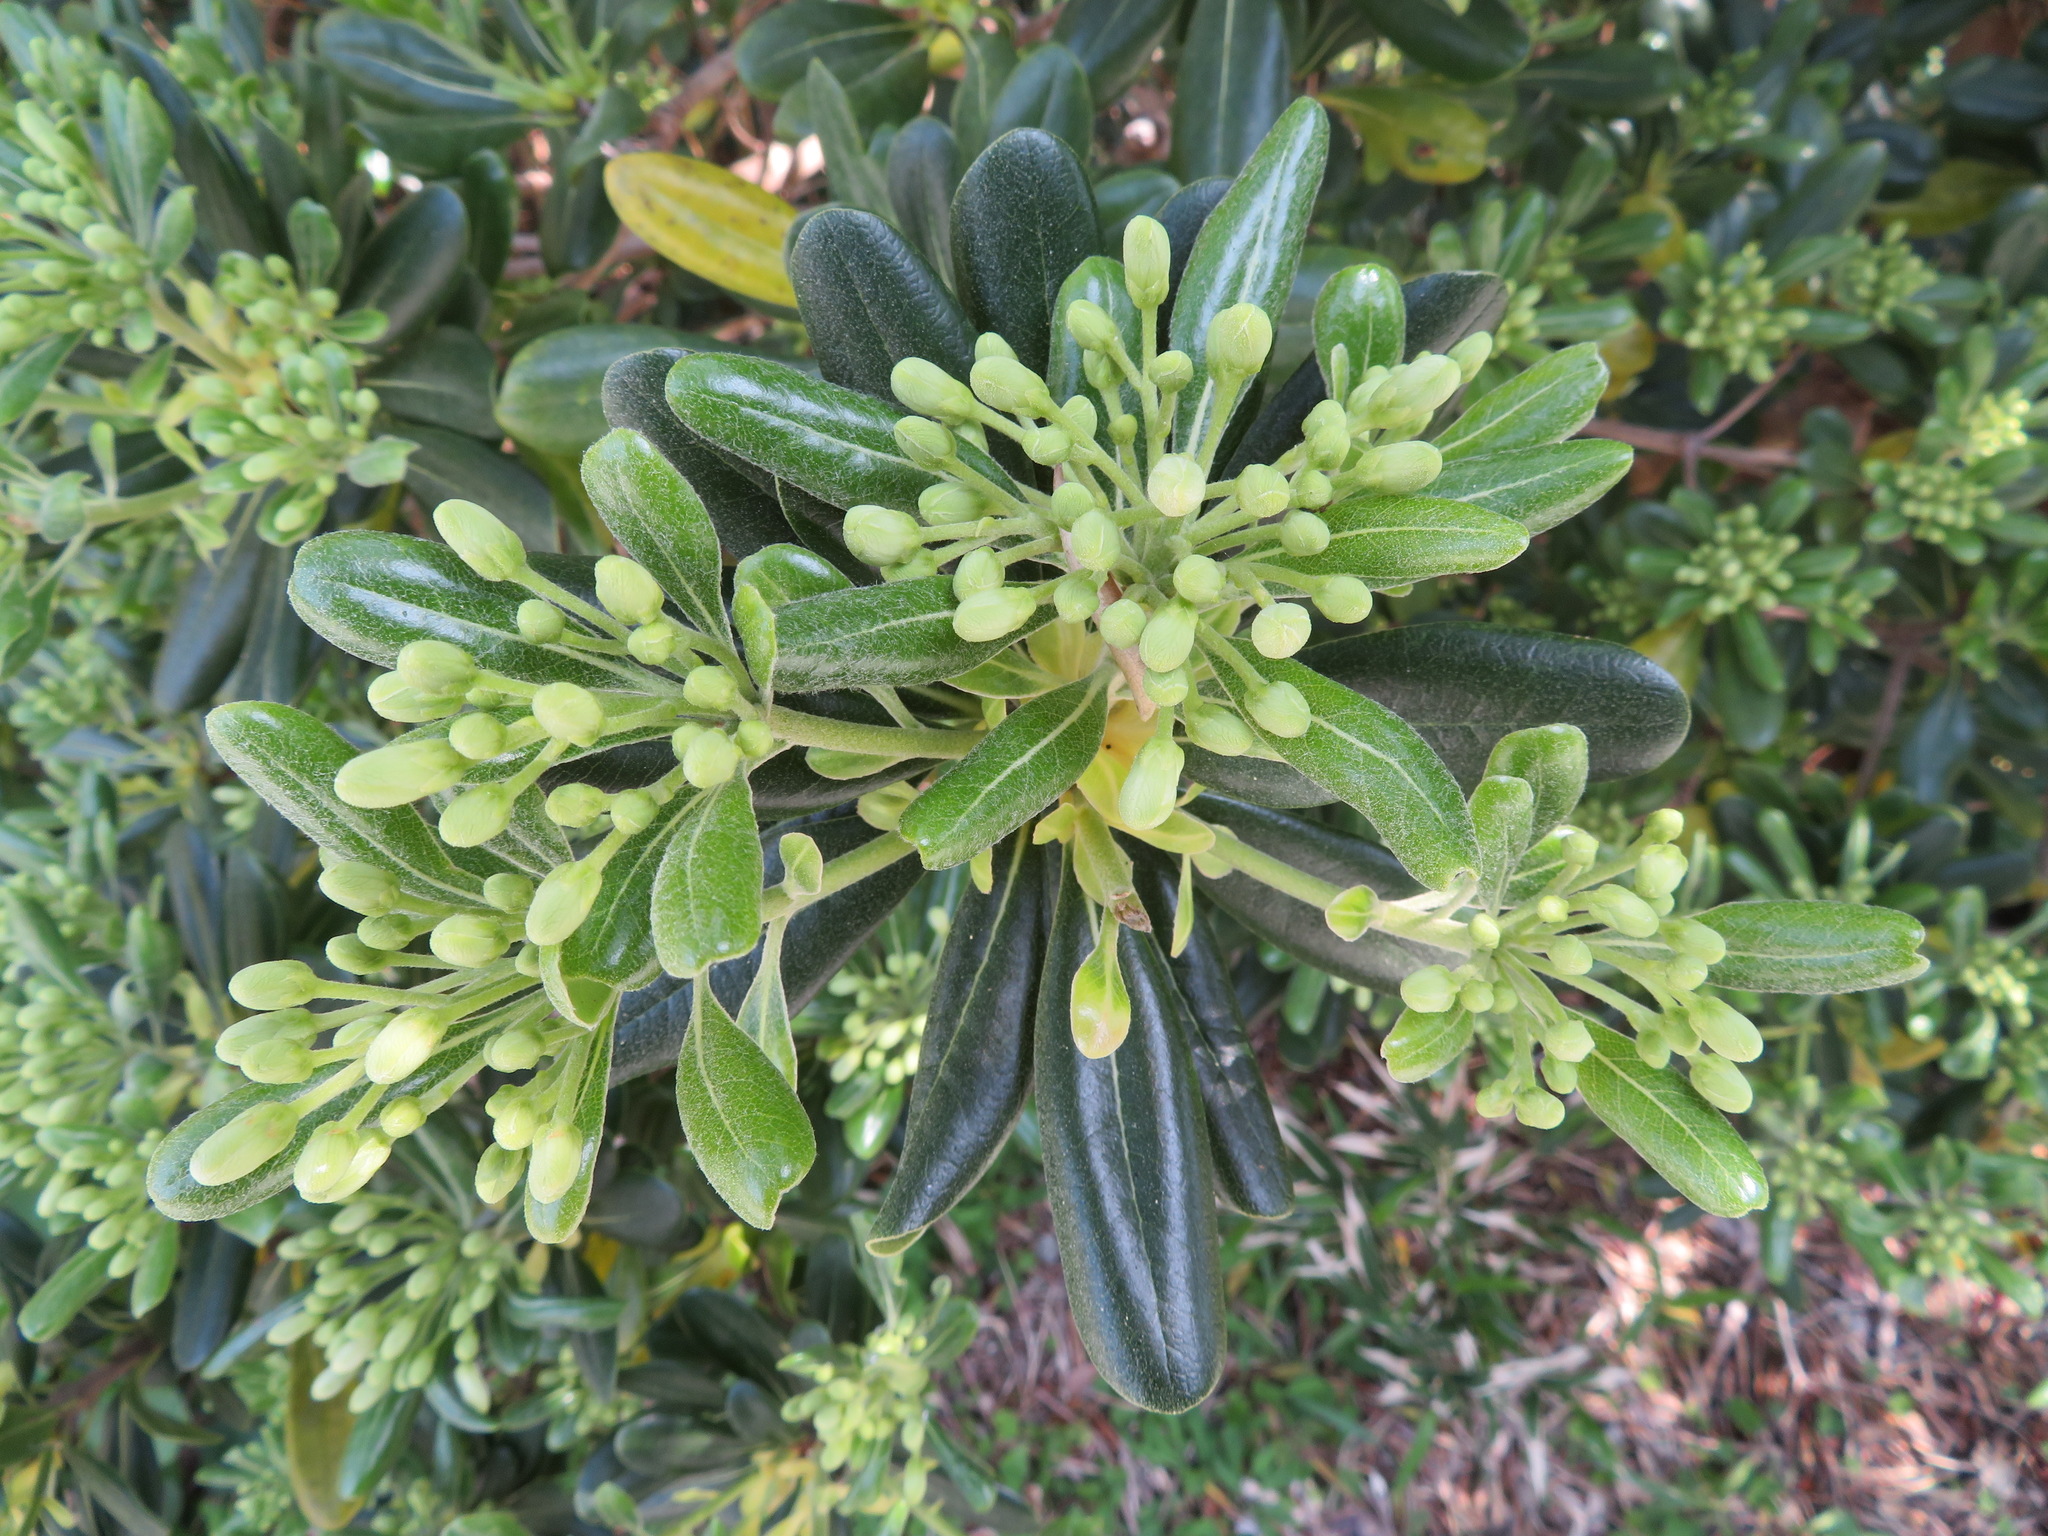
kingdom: Plantae
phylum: Tracheophyta
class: Magnoliopsida
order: Apiales
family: Pittosporaceae
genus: Pittosporum
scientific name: Pittosporum tobira
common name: Japanese cheesewood
